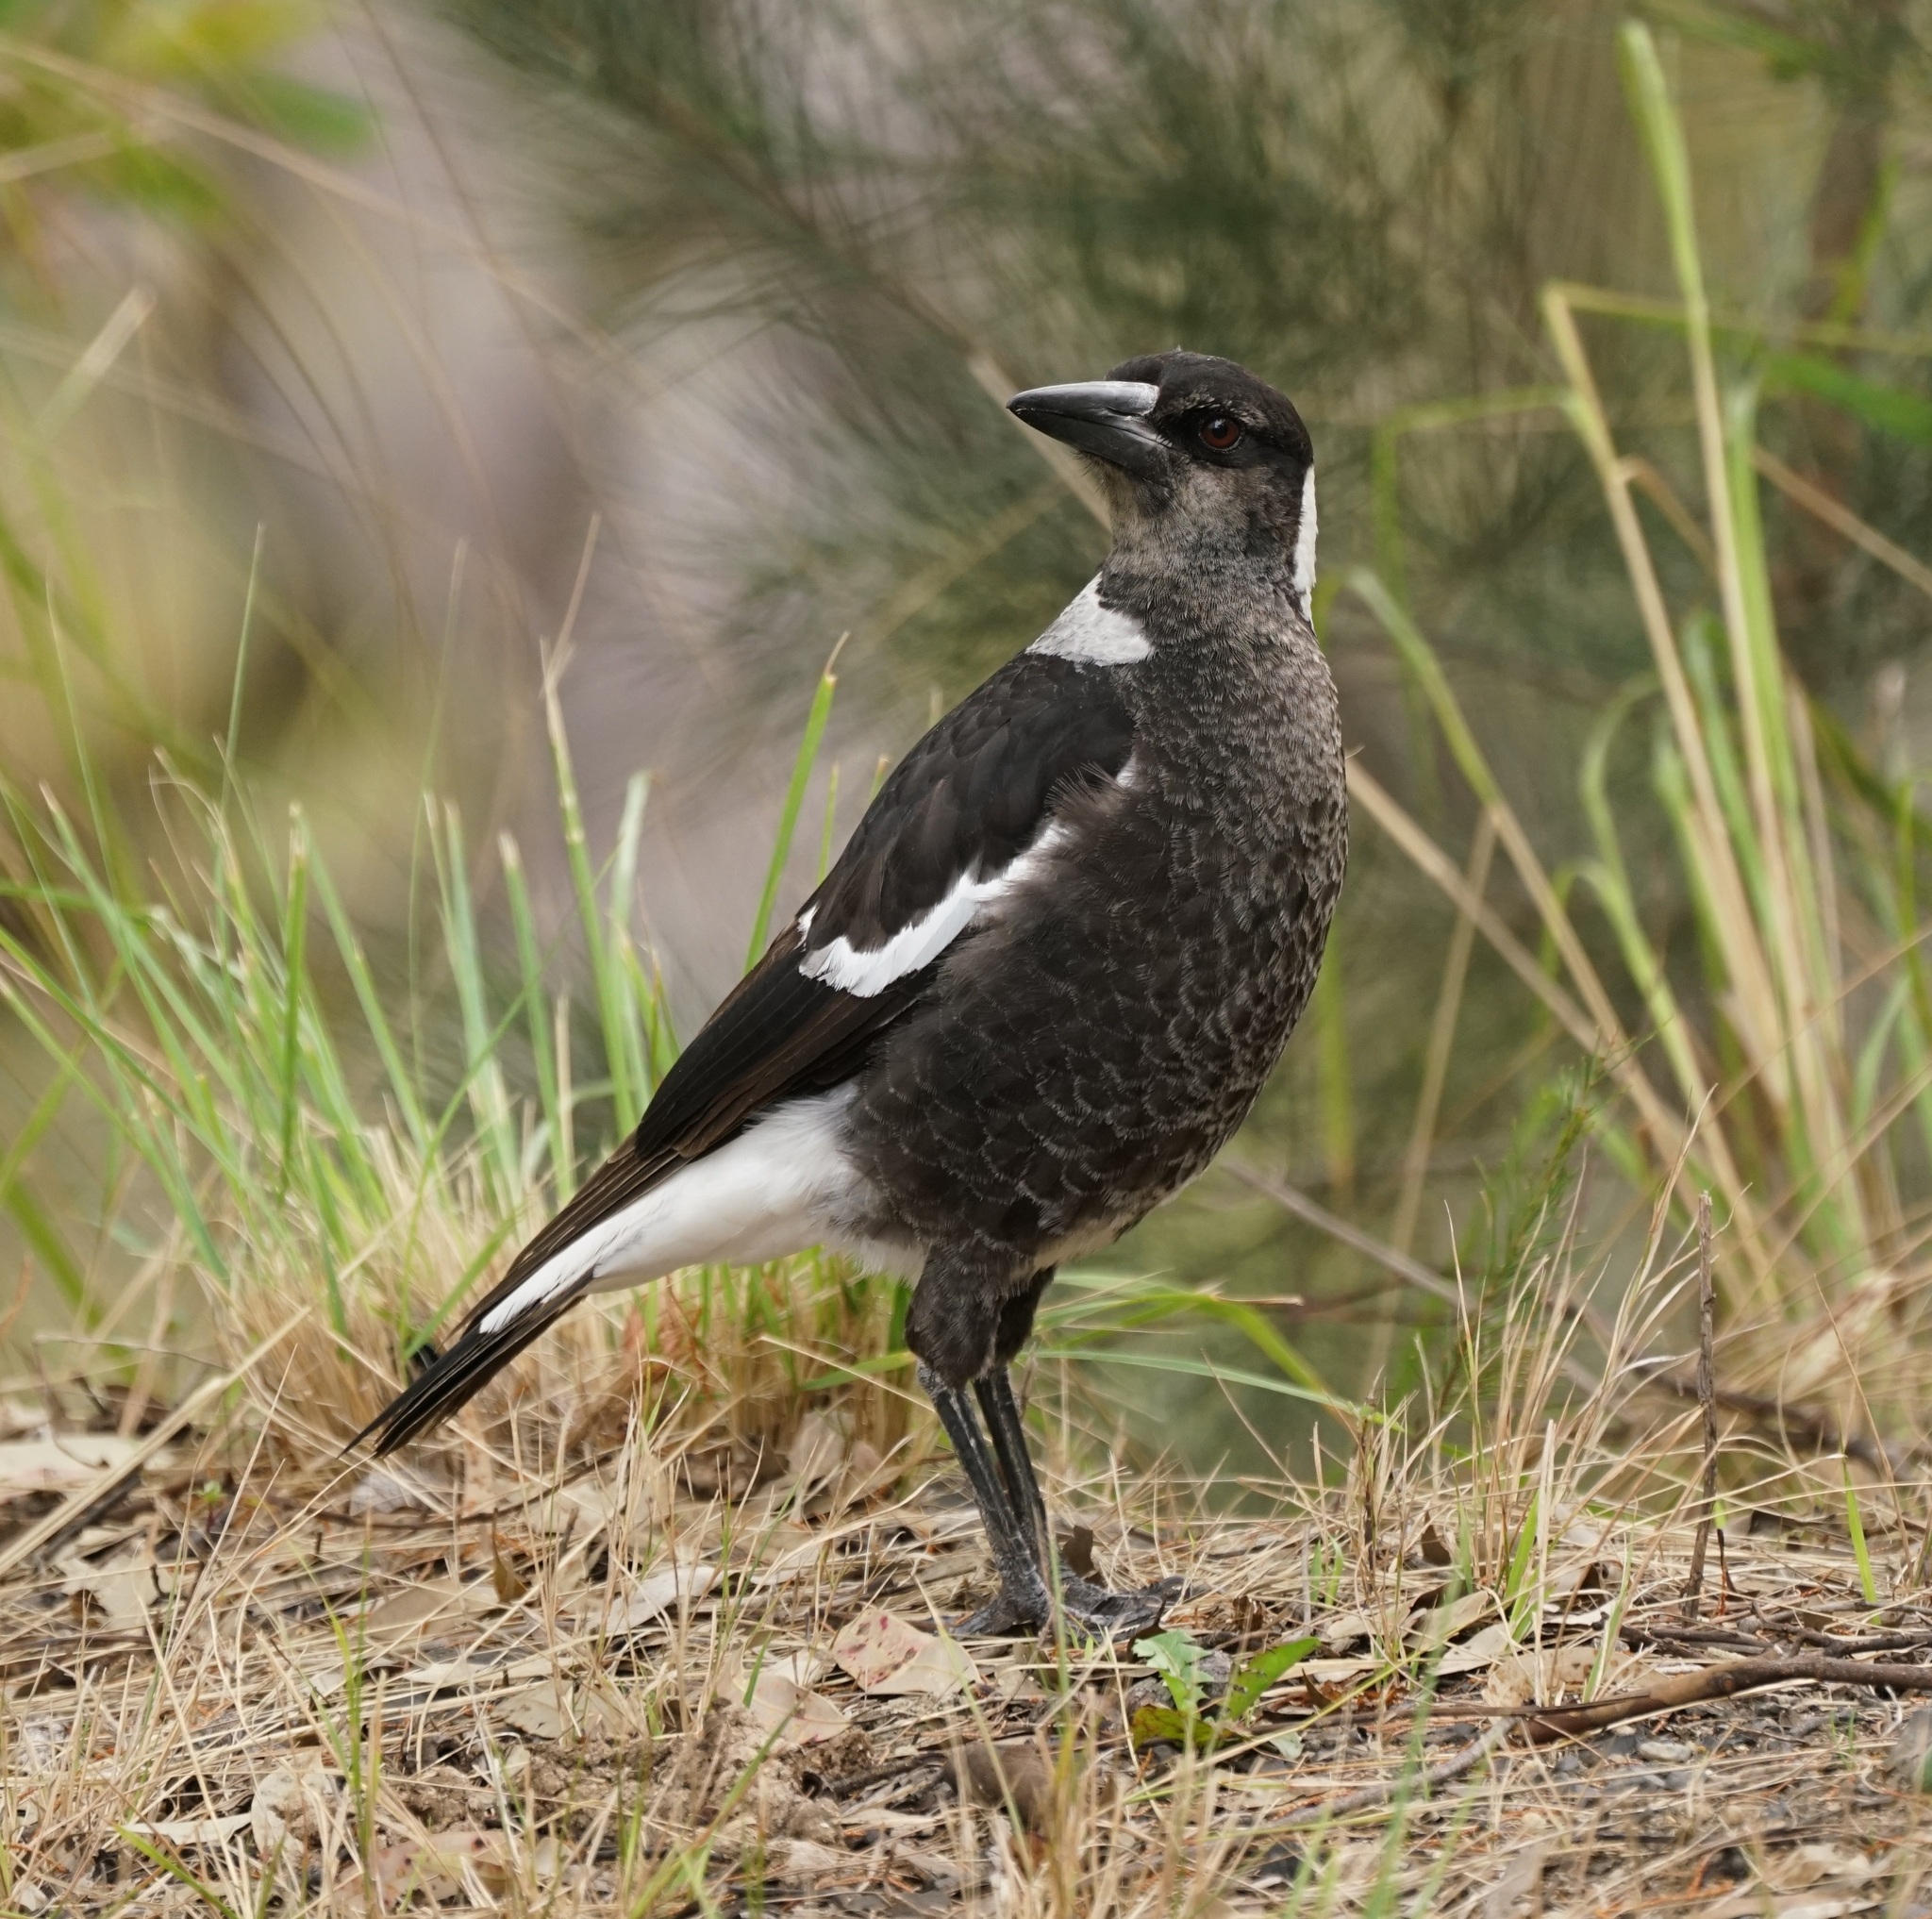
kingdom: Animalia
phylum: Chordata
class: Aves
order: Passeriformes
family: Cracticidae
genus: Gymnorhina
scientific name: Gymnorhina tibicen
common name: Australian magpie
